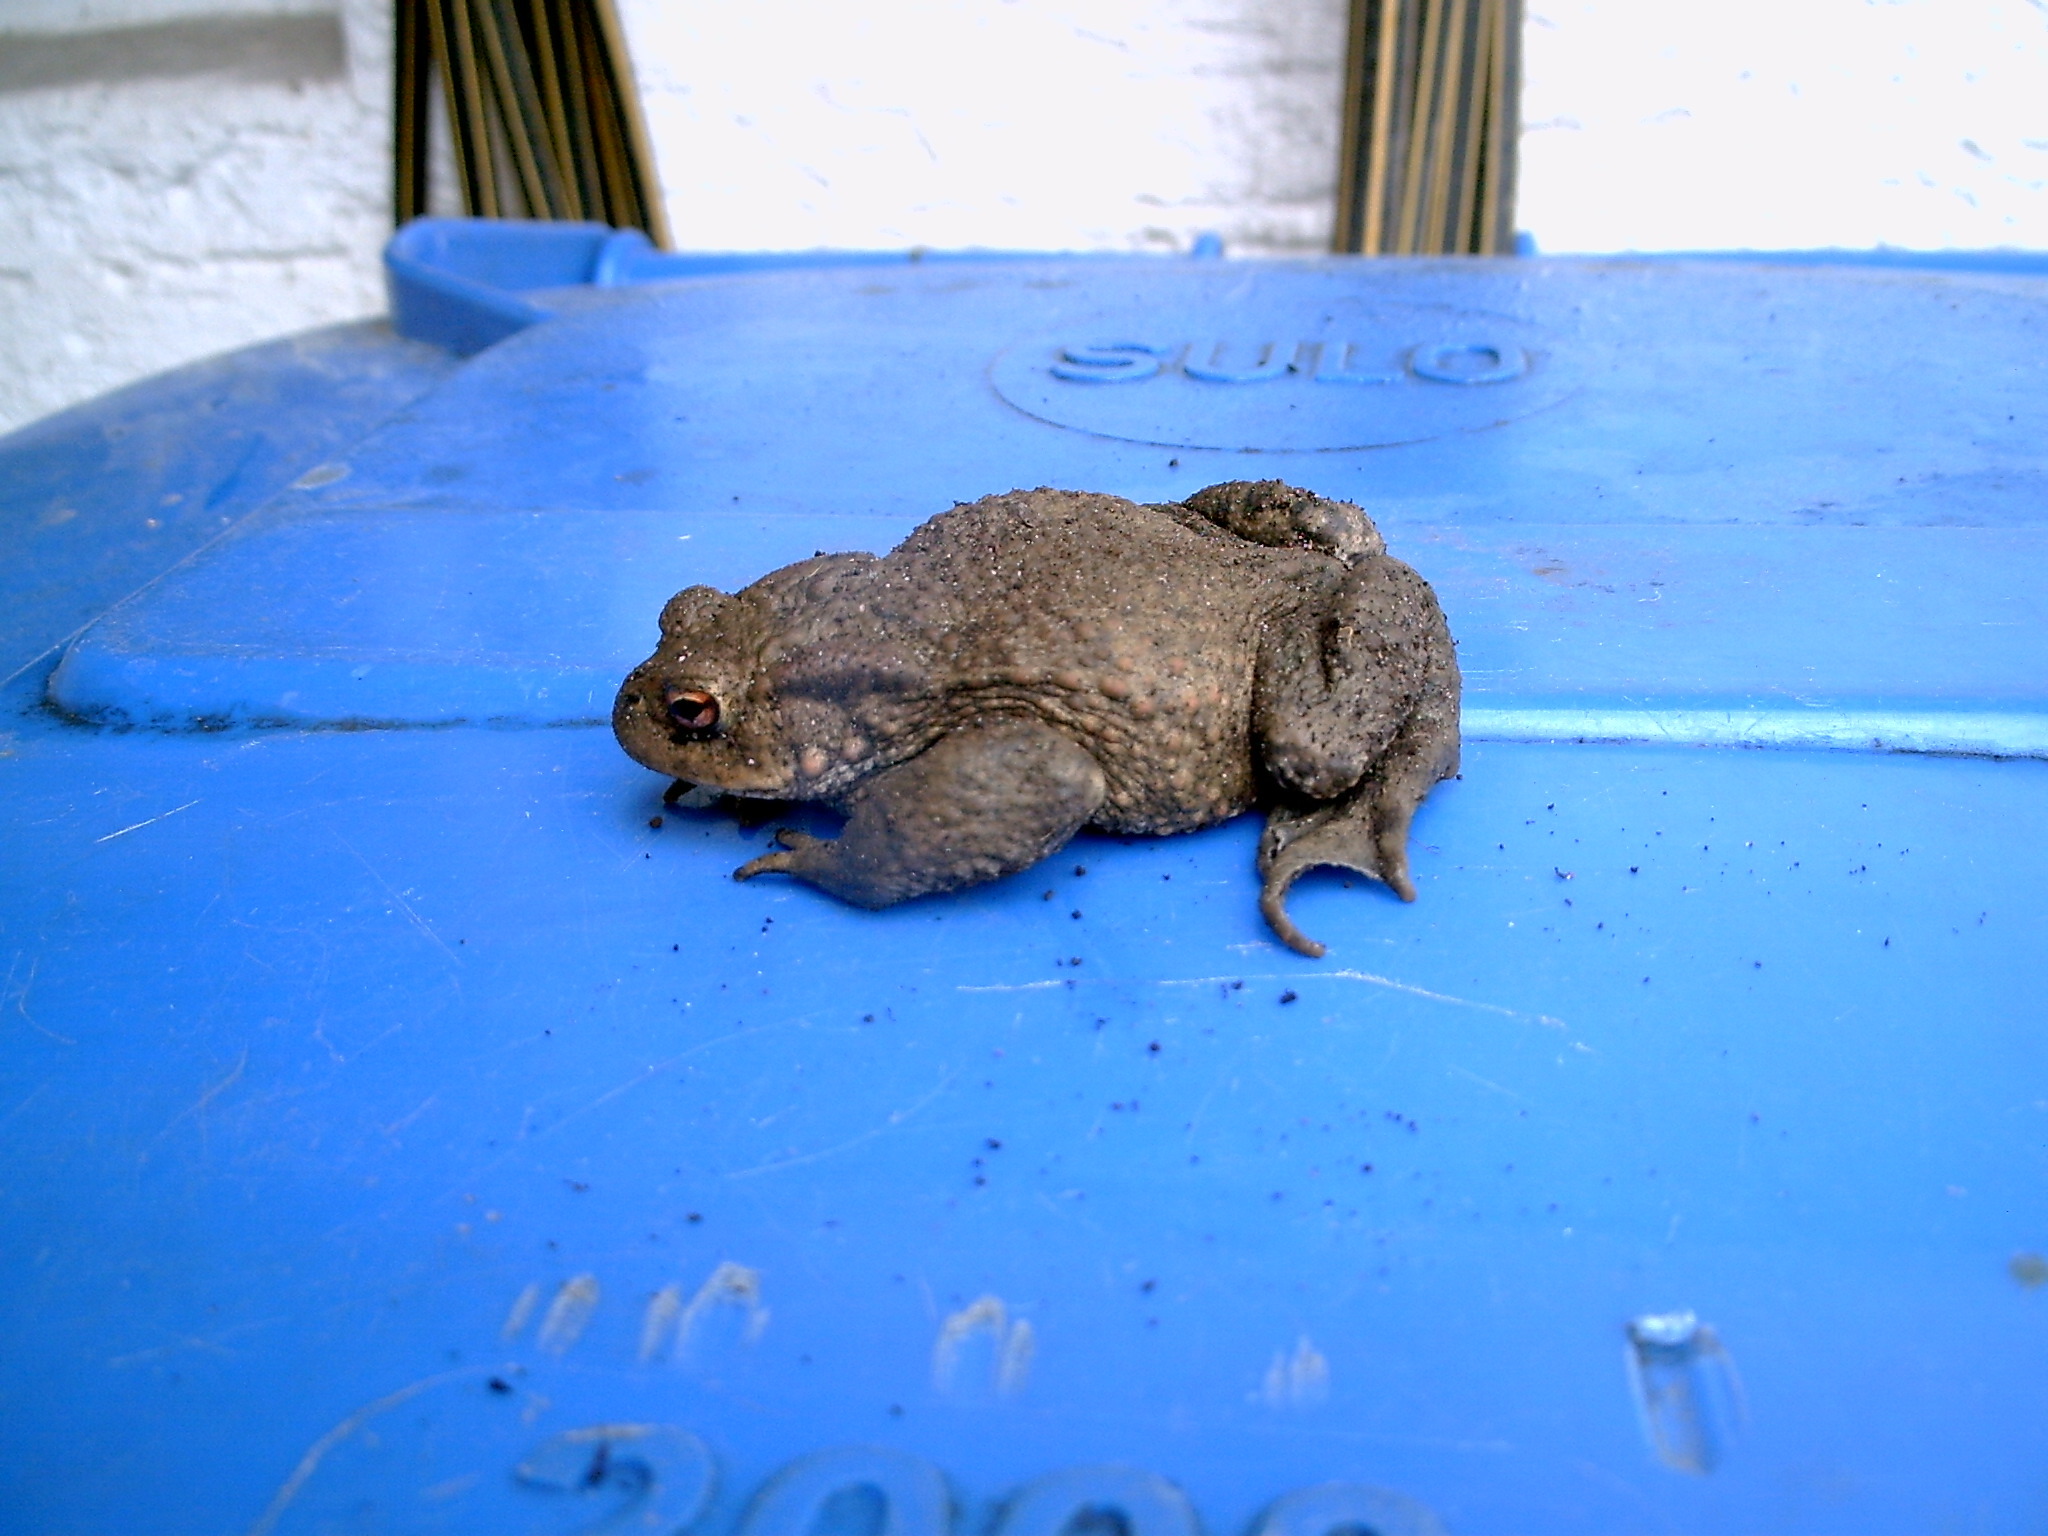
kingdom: Animalia
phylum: Chordata
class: Amphibia
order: Anura
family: Bufonidae
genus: Bufo
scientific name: Bufo bufo
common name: Common toad
